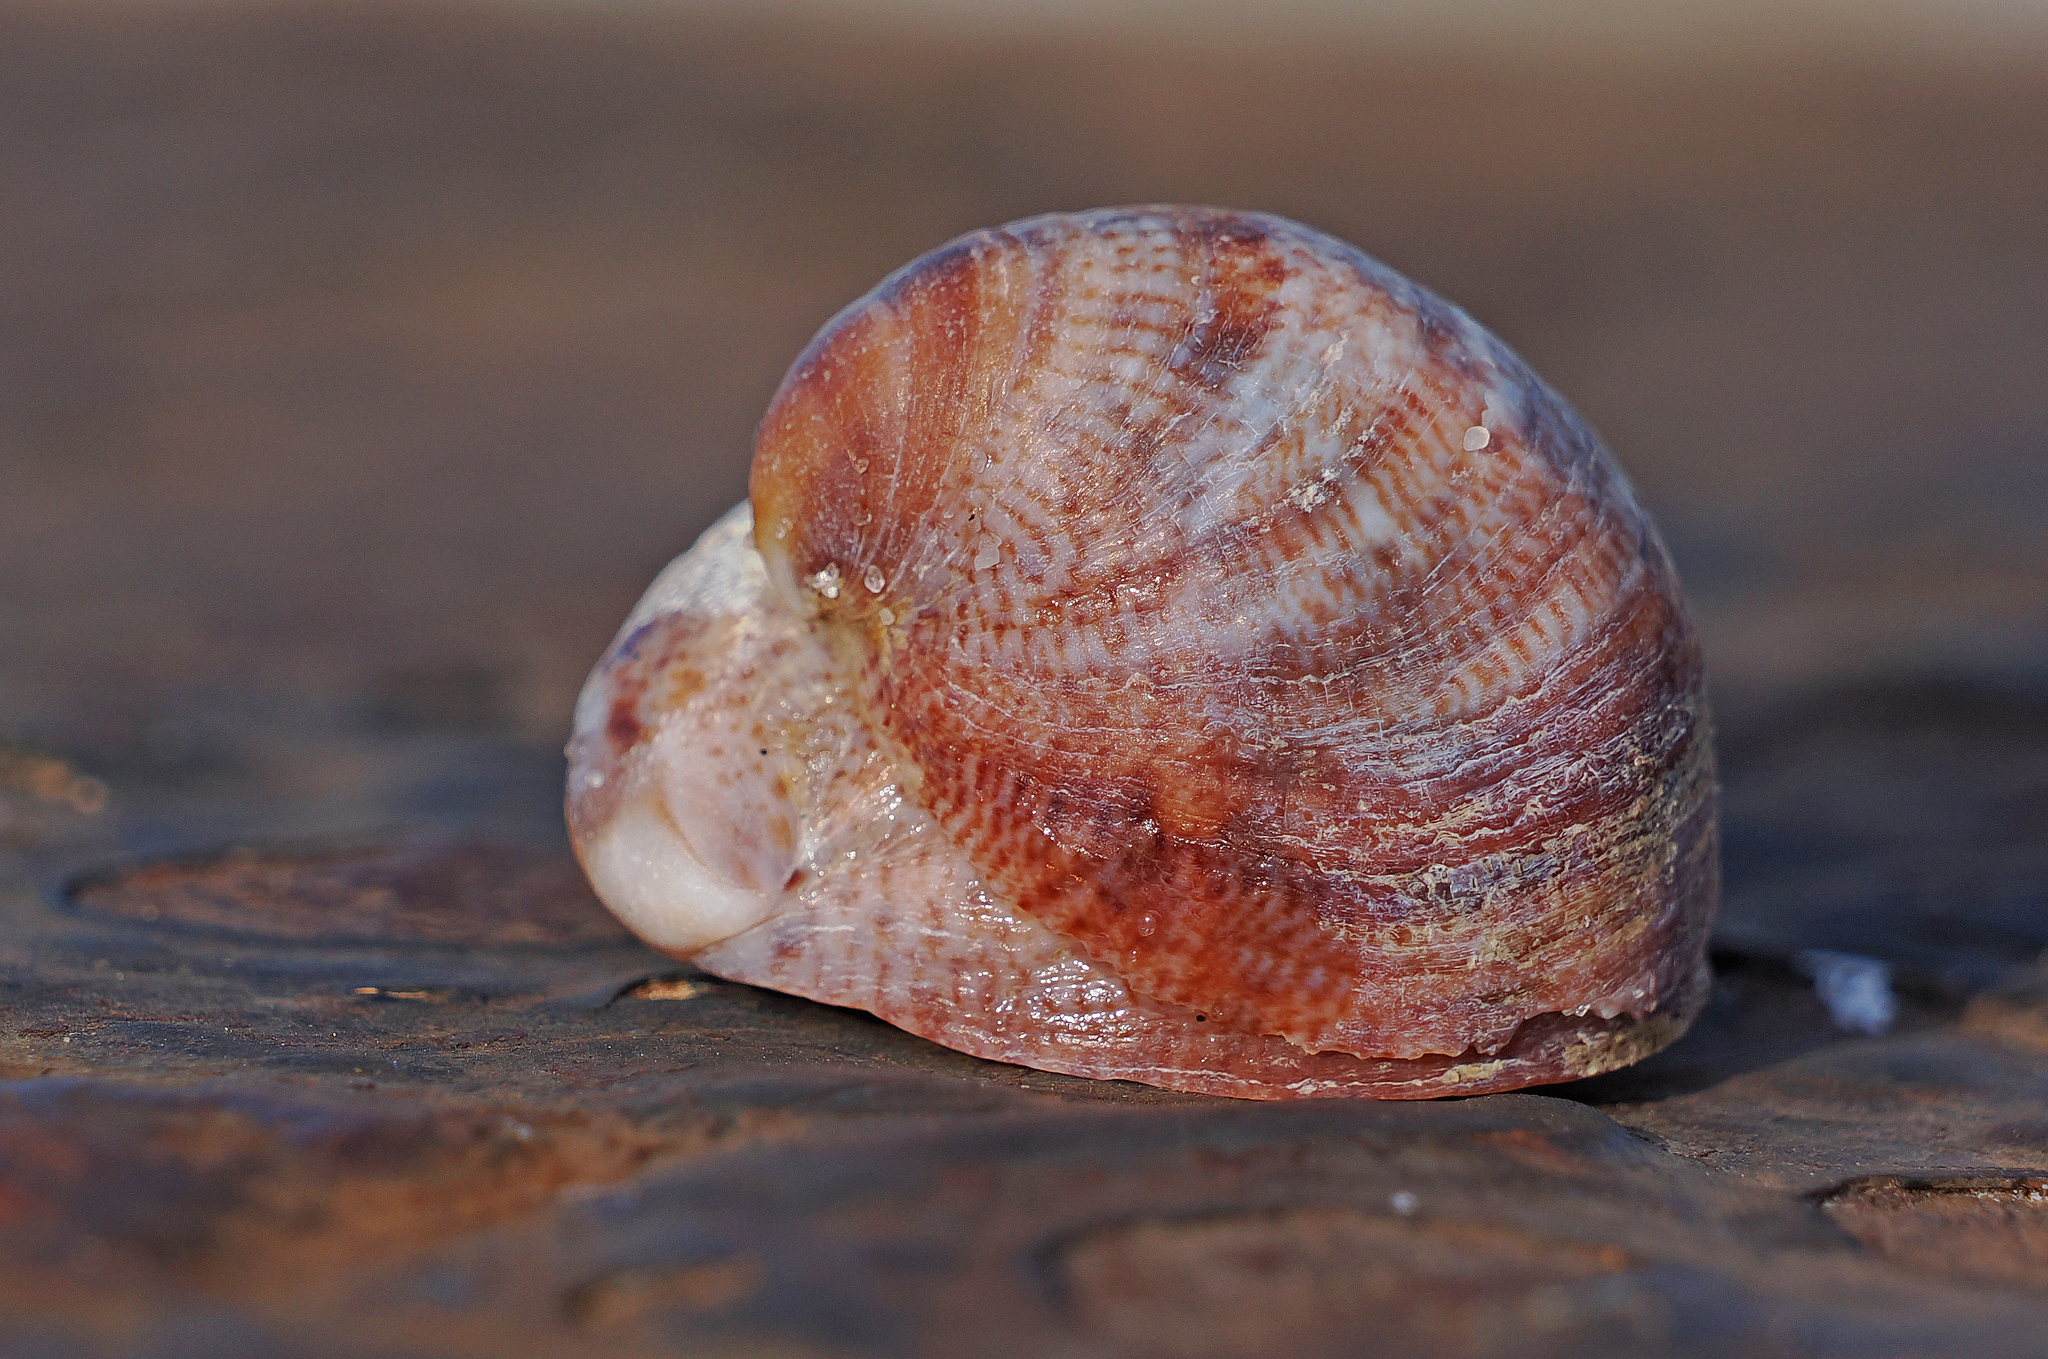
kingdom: Animalia
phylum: Mollusca
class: Gastropoda
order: Littorinimorpha
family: Calyptraeidae
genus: Crepidula
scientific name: Crepidula fornicata
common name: Slipper limpet
